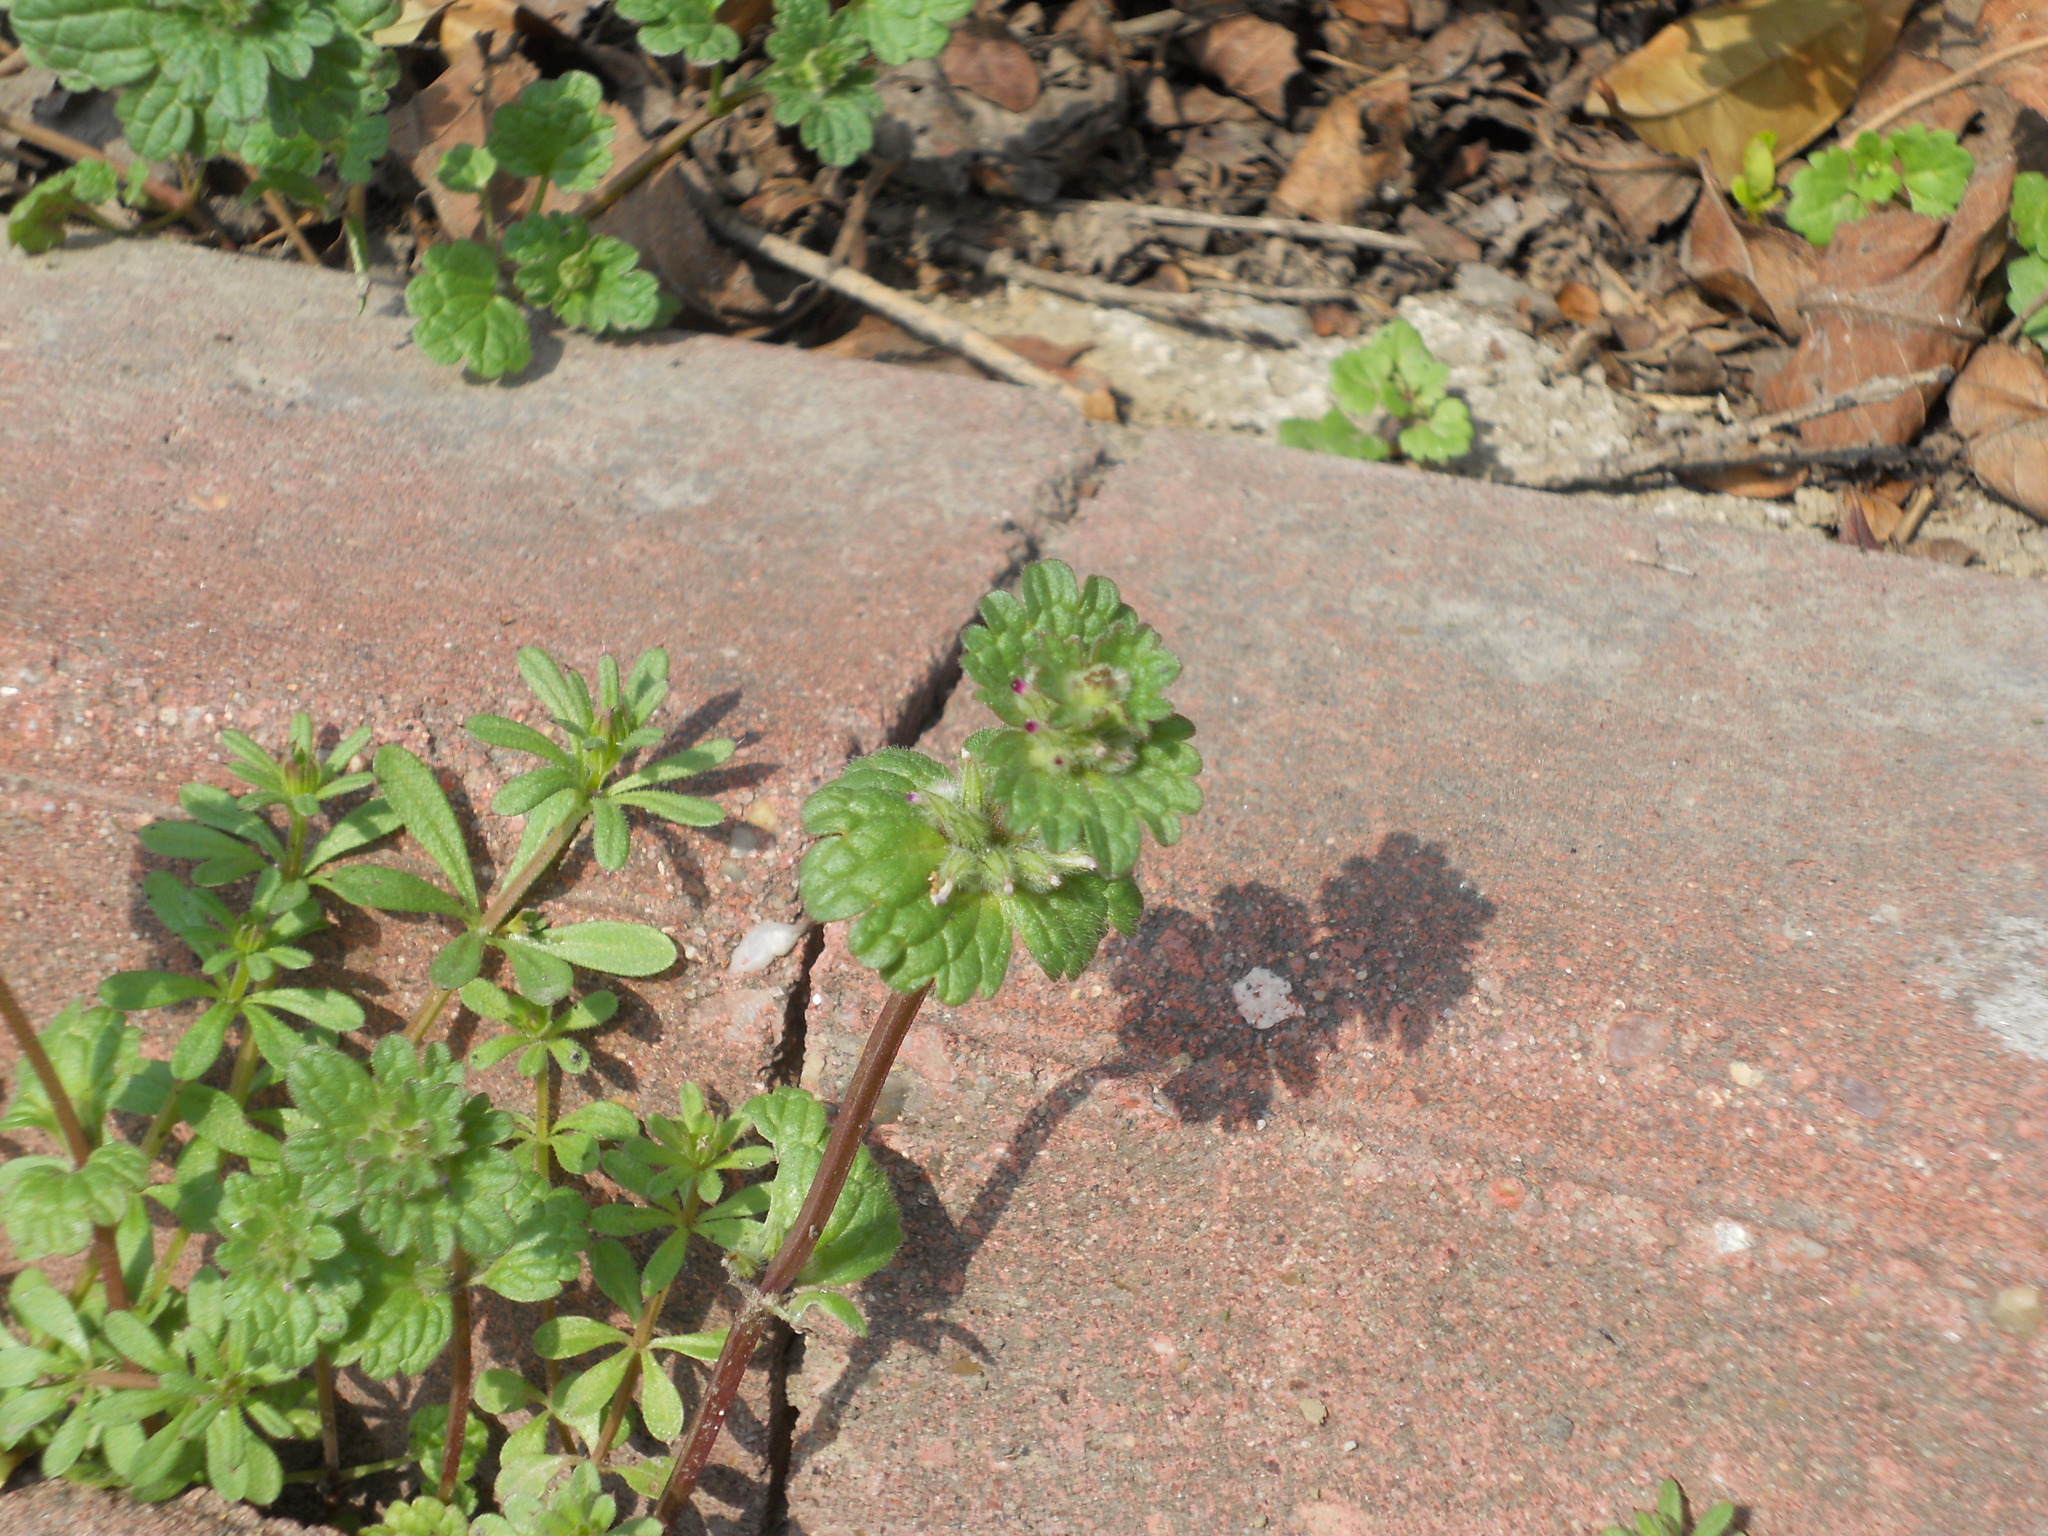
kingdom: Plantae
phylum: Tracheophyta
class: Magnoliopsida
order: Lamiales
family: Lamiaceae
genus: Lamium
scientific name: Lamium amplexicaule
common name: Henbit dead-nettle
